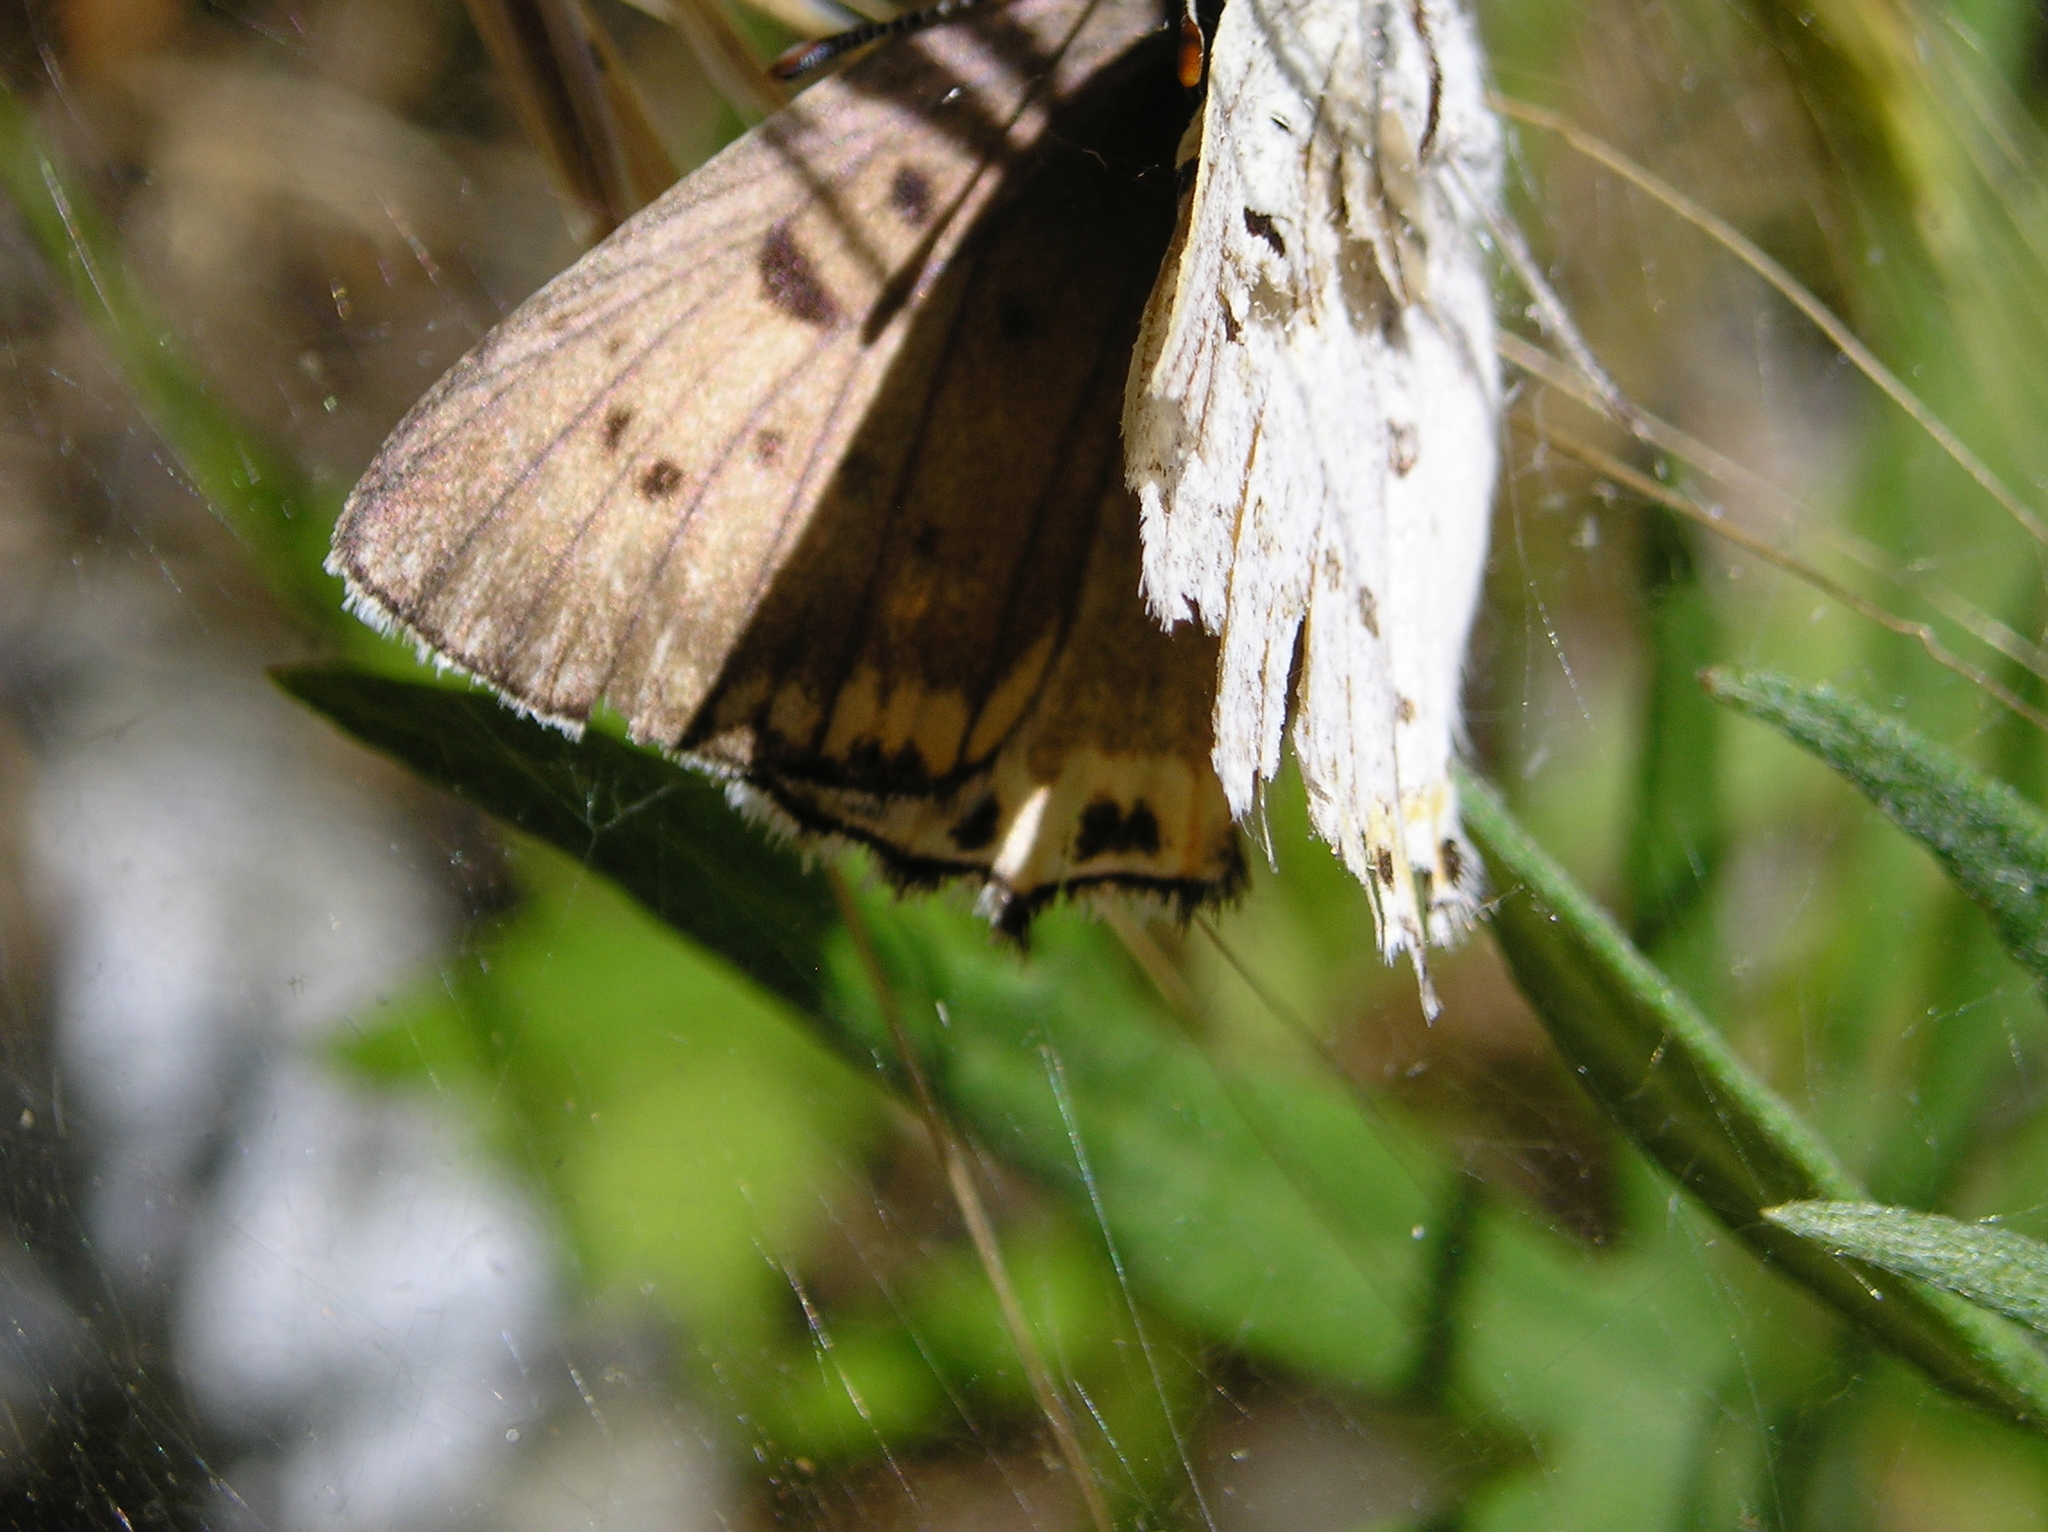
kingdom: Animalia
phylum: Arthropoda
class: Insecta
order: Lepidoptera
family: Lycaenidae
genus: Tharsalea
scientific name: Tharsalea xanthoides
